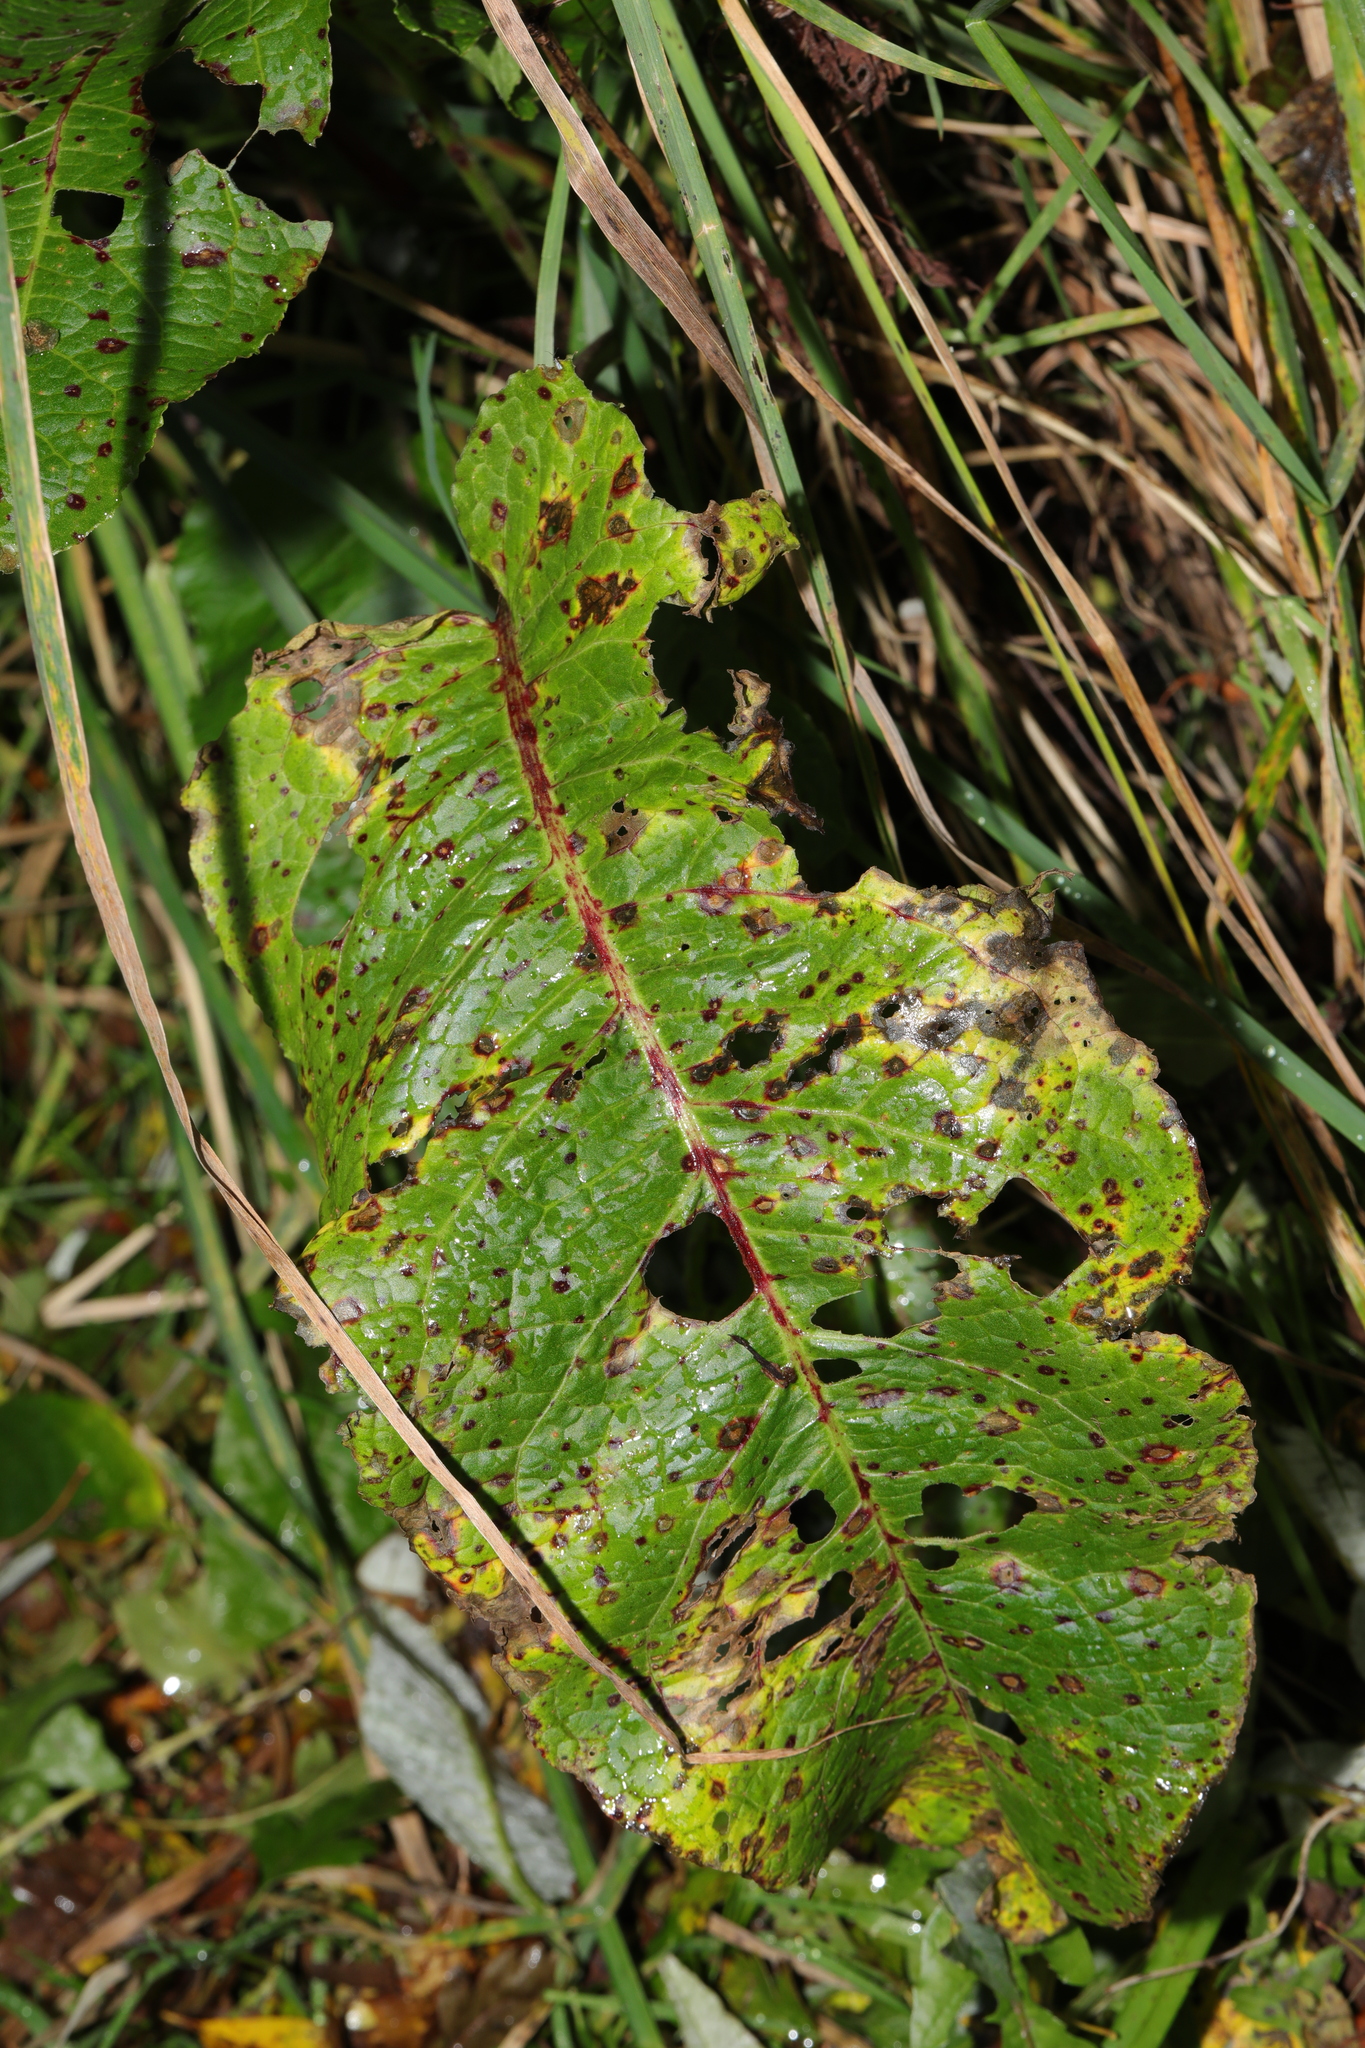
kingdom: Plantae
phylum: Tracheophyta
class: Magnoliopsida
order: Caryophyllales
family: Polygonaceae
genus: Rumex
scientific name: Rumex obtusifolius
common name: Bitter dock
